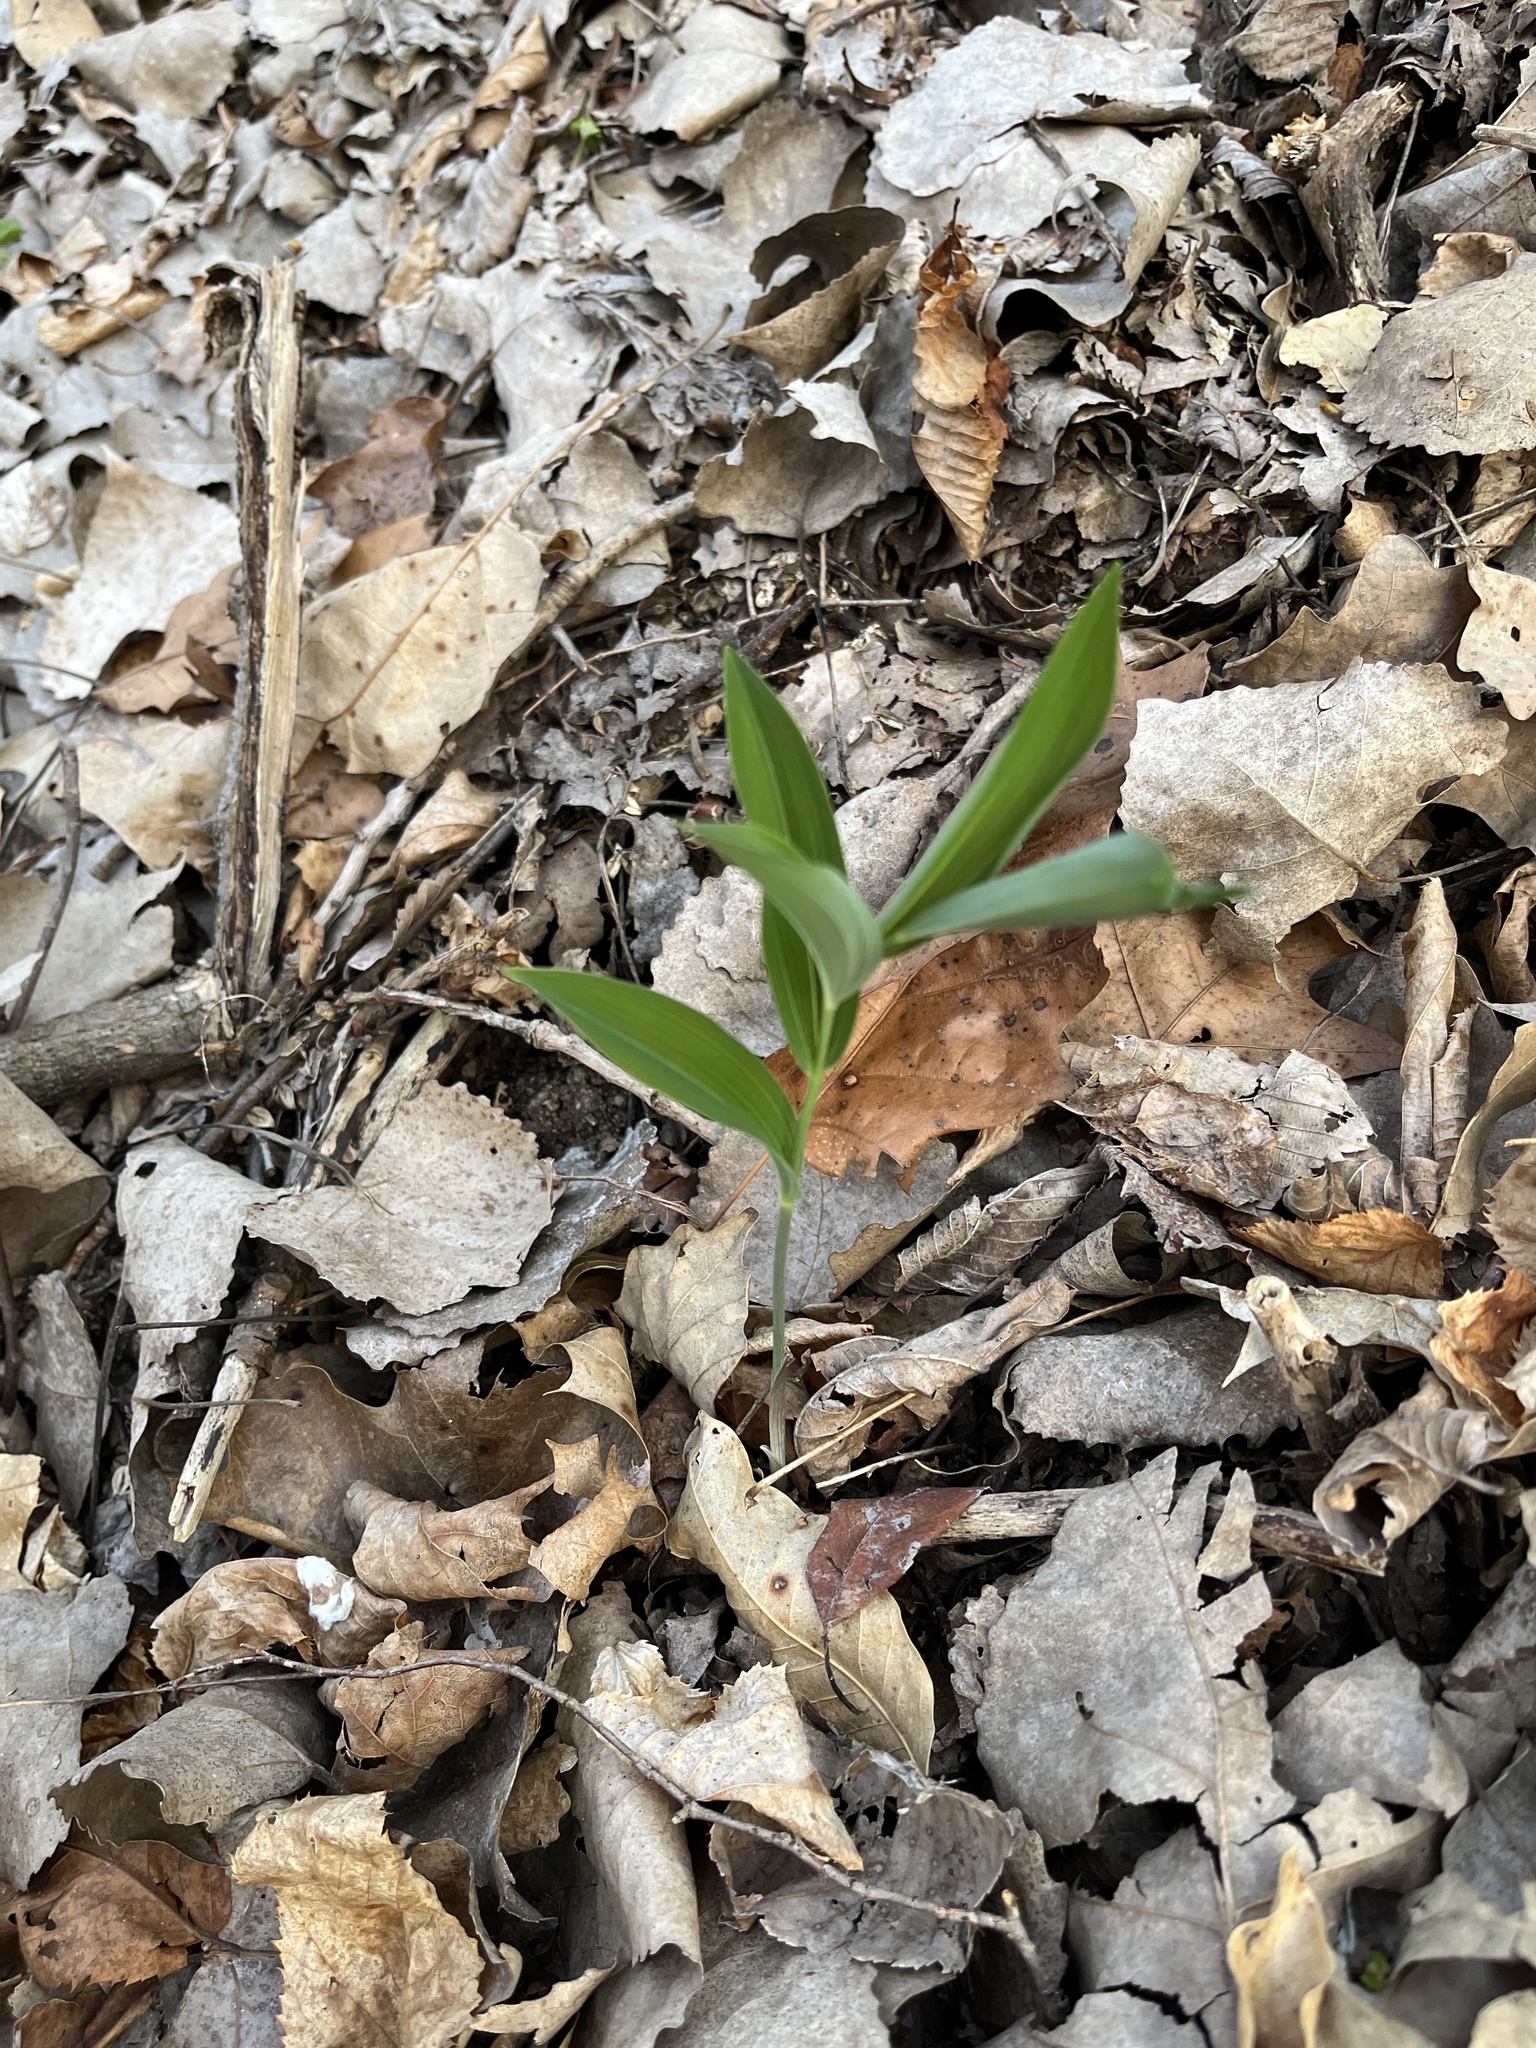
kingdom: Plantae
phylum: Tracheophyta
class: Liliopsida
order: Asparagales
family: Asparagaceae
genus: Polygonatum
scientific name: Polygonatum biflorum
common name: American solomon's-seal
